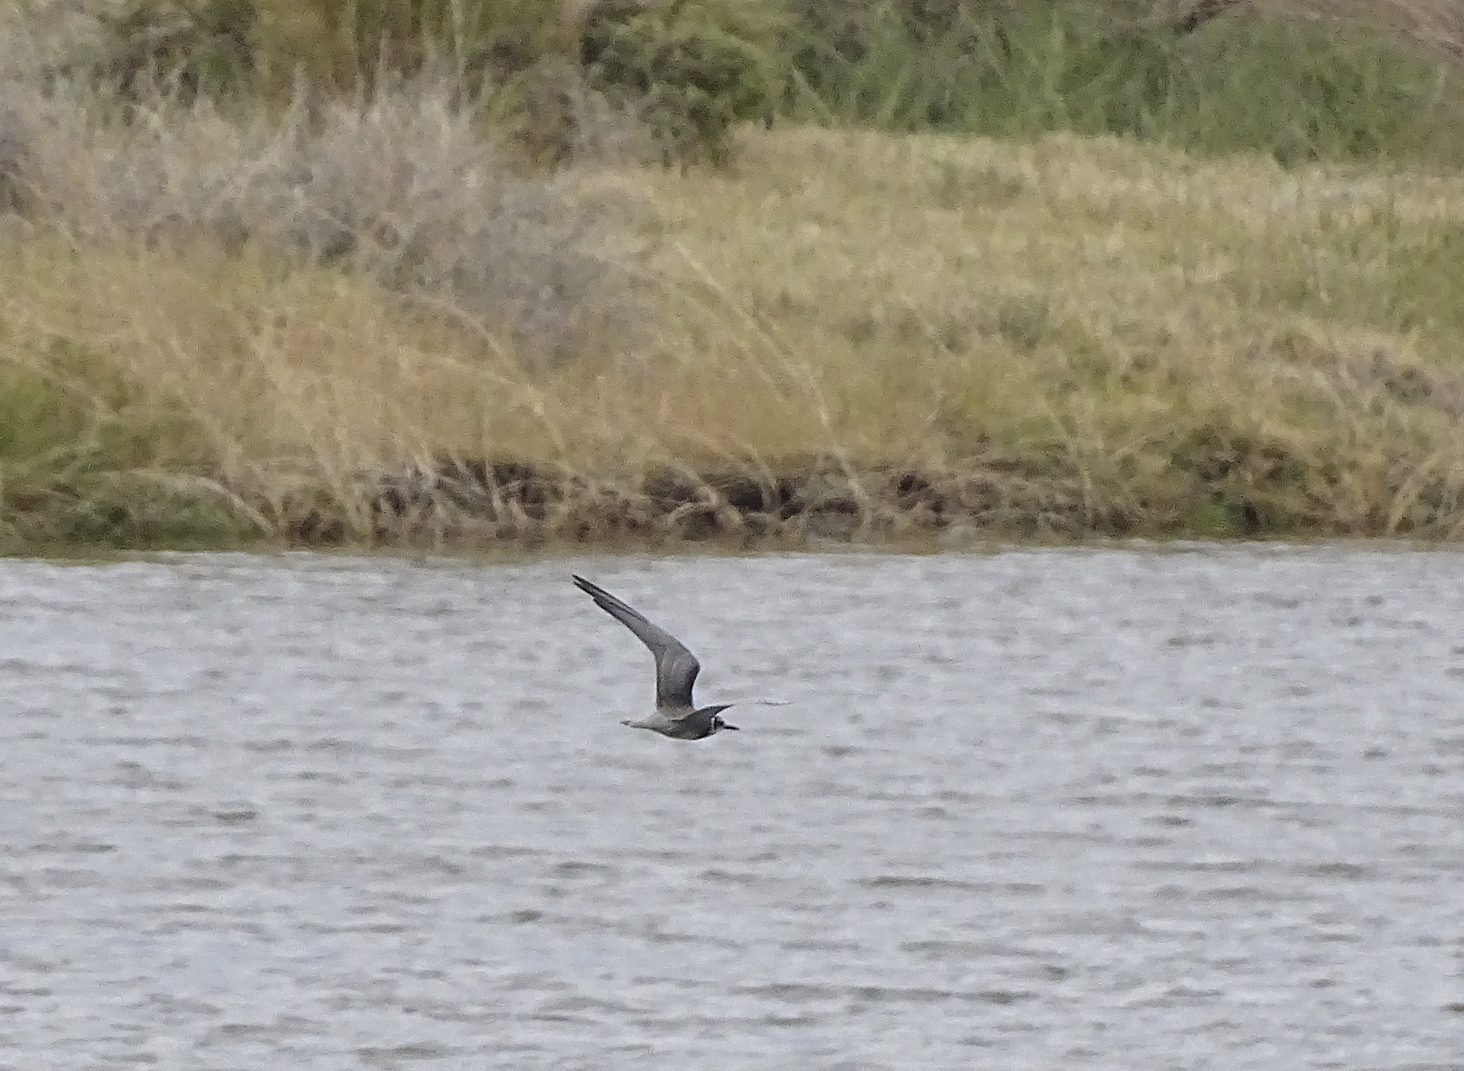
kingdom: Animalia
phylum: Chordata
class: Aves
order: Charadriiformes
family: Laridae
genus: Chlidonias
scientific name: Chlidonias niger
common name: Black tern
